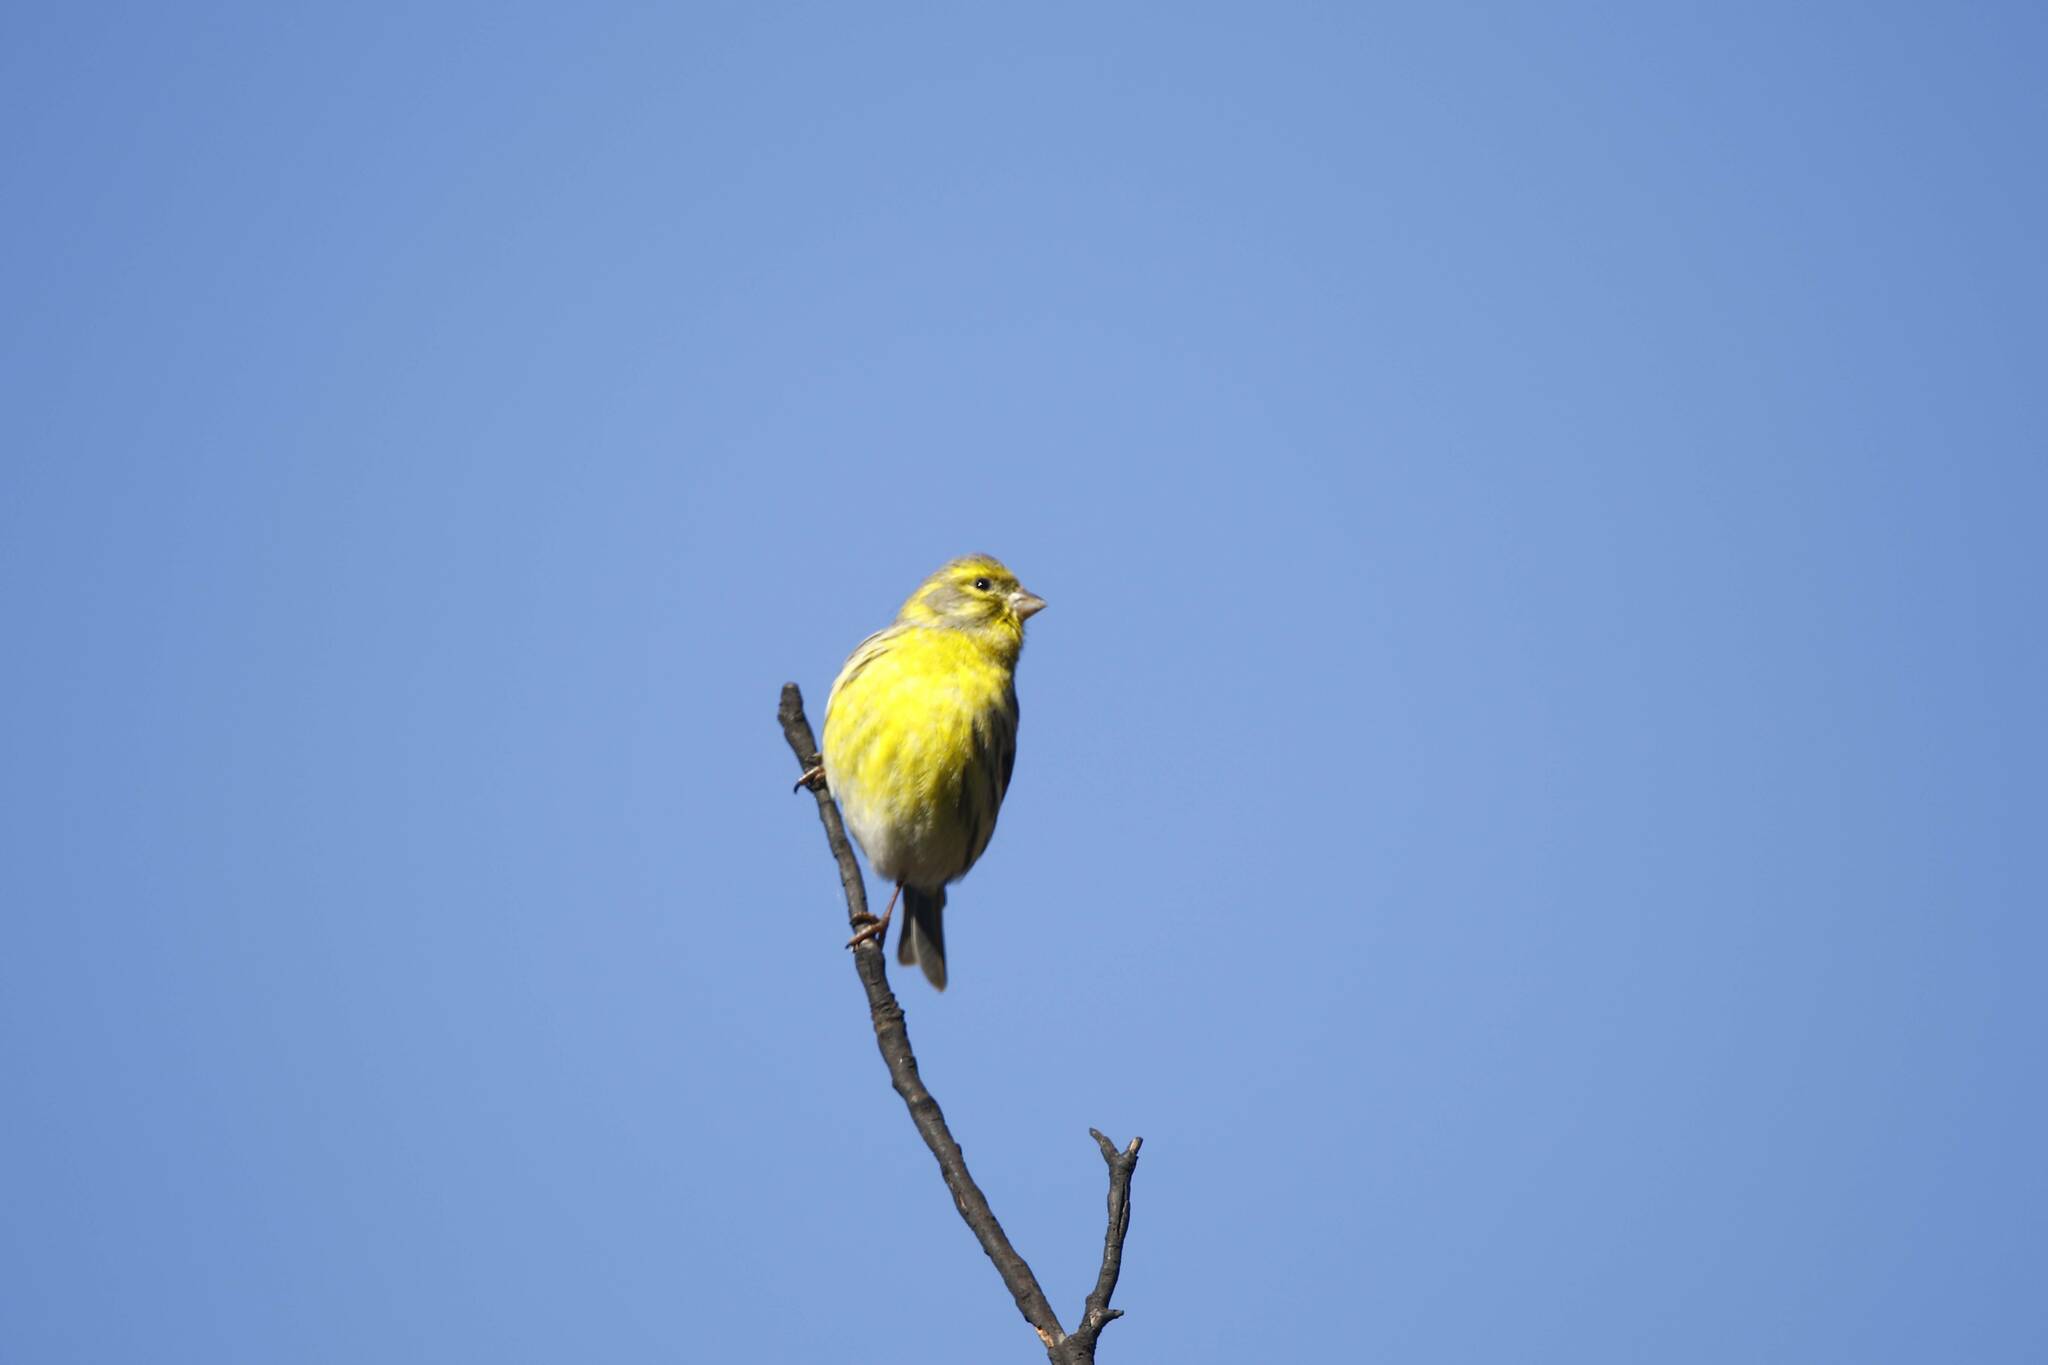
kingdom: Animalia
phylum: Chordata
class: Aves
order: Passeriformes
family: Fringillidae
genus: Serinus
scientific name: Serinus serinus
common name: European serin
